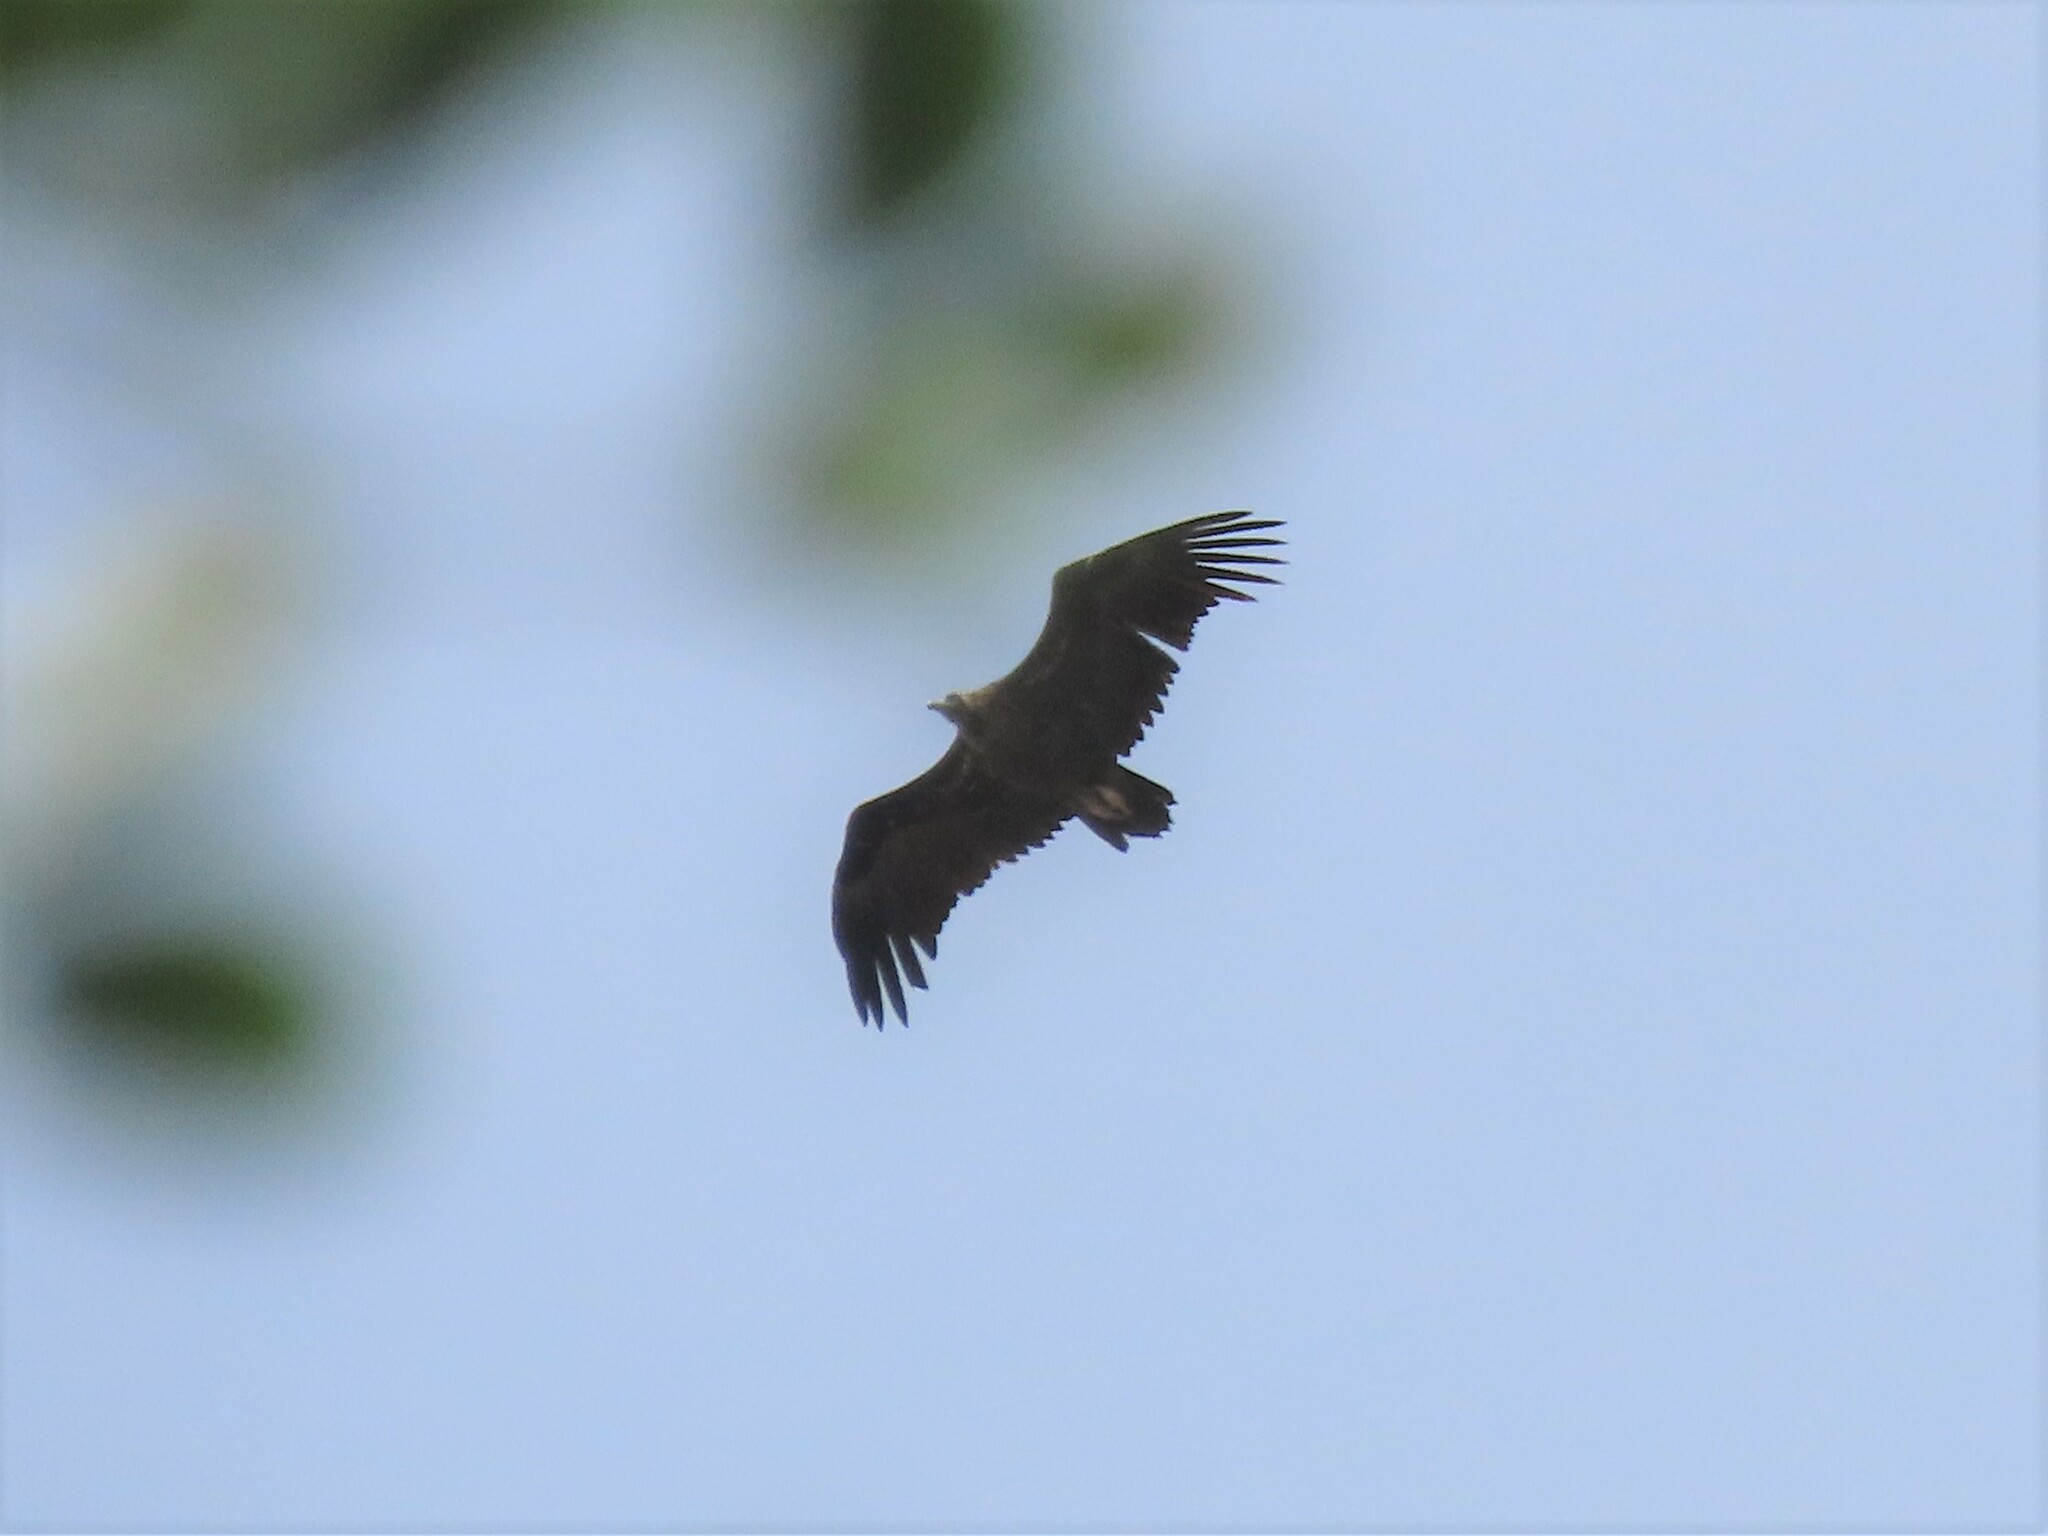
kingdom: Animalia
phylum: Chordata
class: Aves
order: Accipitriformes
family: Accipitridae
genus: Aegypius
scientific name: Aegypius monachus
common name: Cinereous vulture
